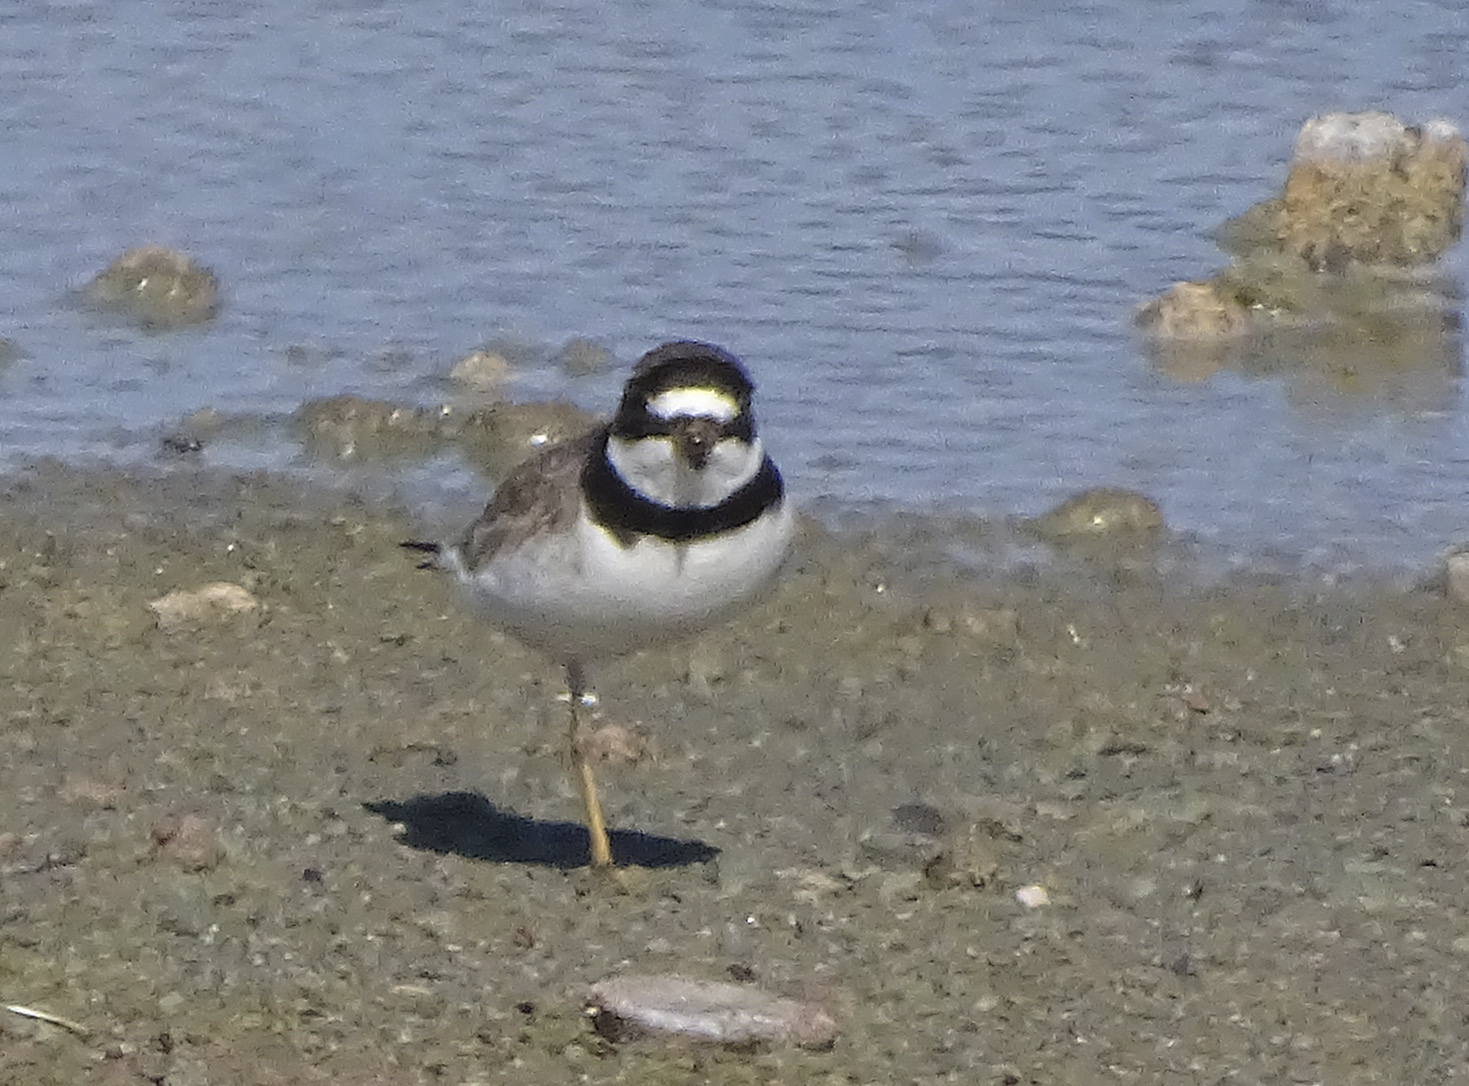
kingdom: Animalia
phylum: Chordata
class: Aves
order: Charadriiformes
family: Charadriidae
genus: Charadrius
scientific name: Charadrius semipalmatus
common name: Semipalmated plover
